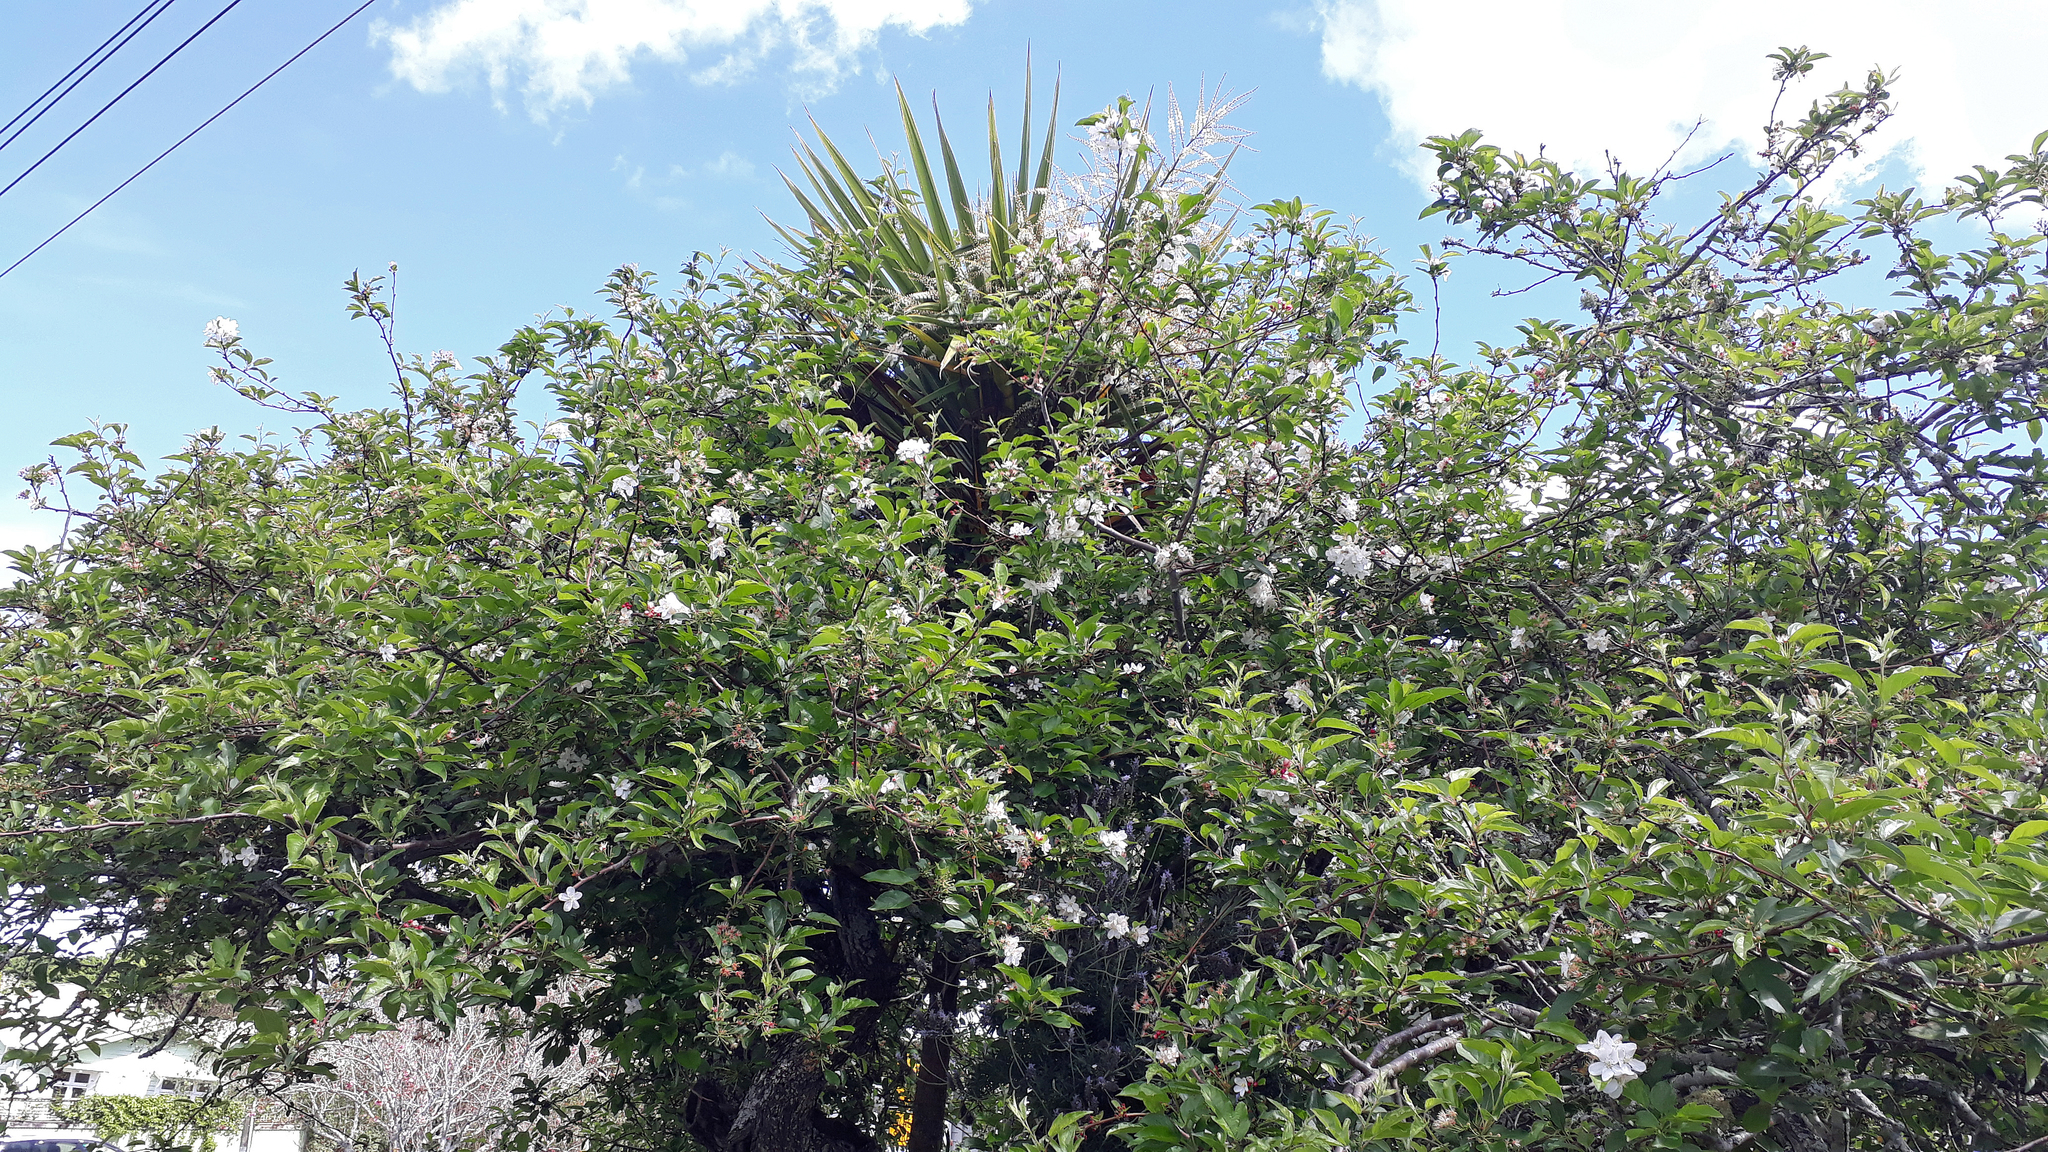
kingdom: Plantae
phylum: Tracheophyta
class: Liliopsida
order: Asparagales
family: Asparagaceae
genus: Cordyline
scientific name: Cordyline australis
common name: Cabbage-palm
